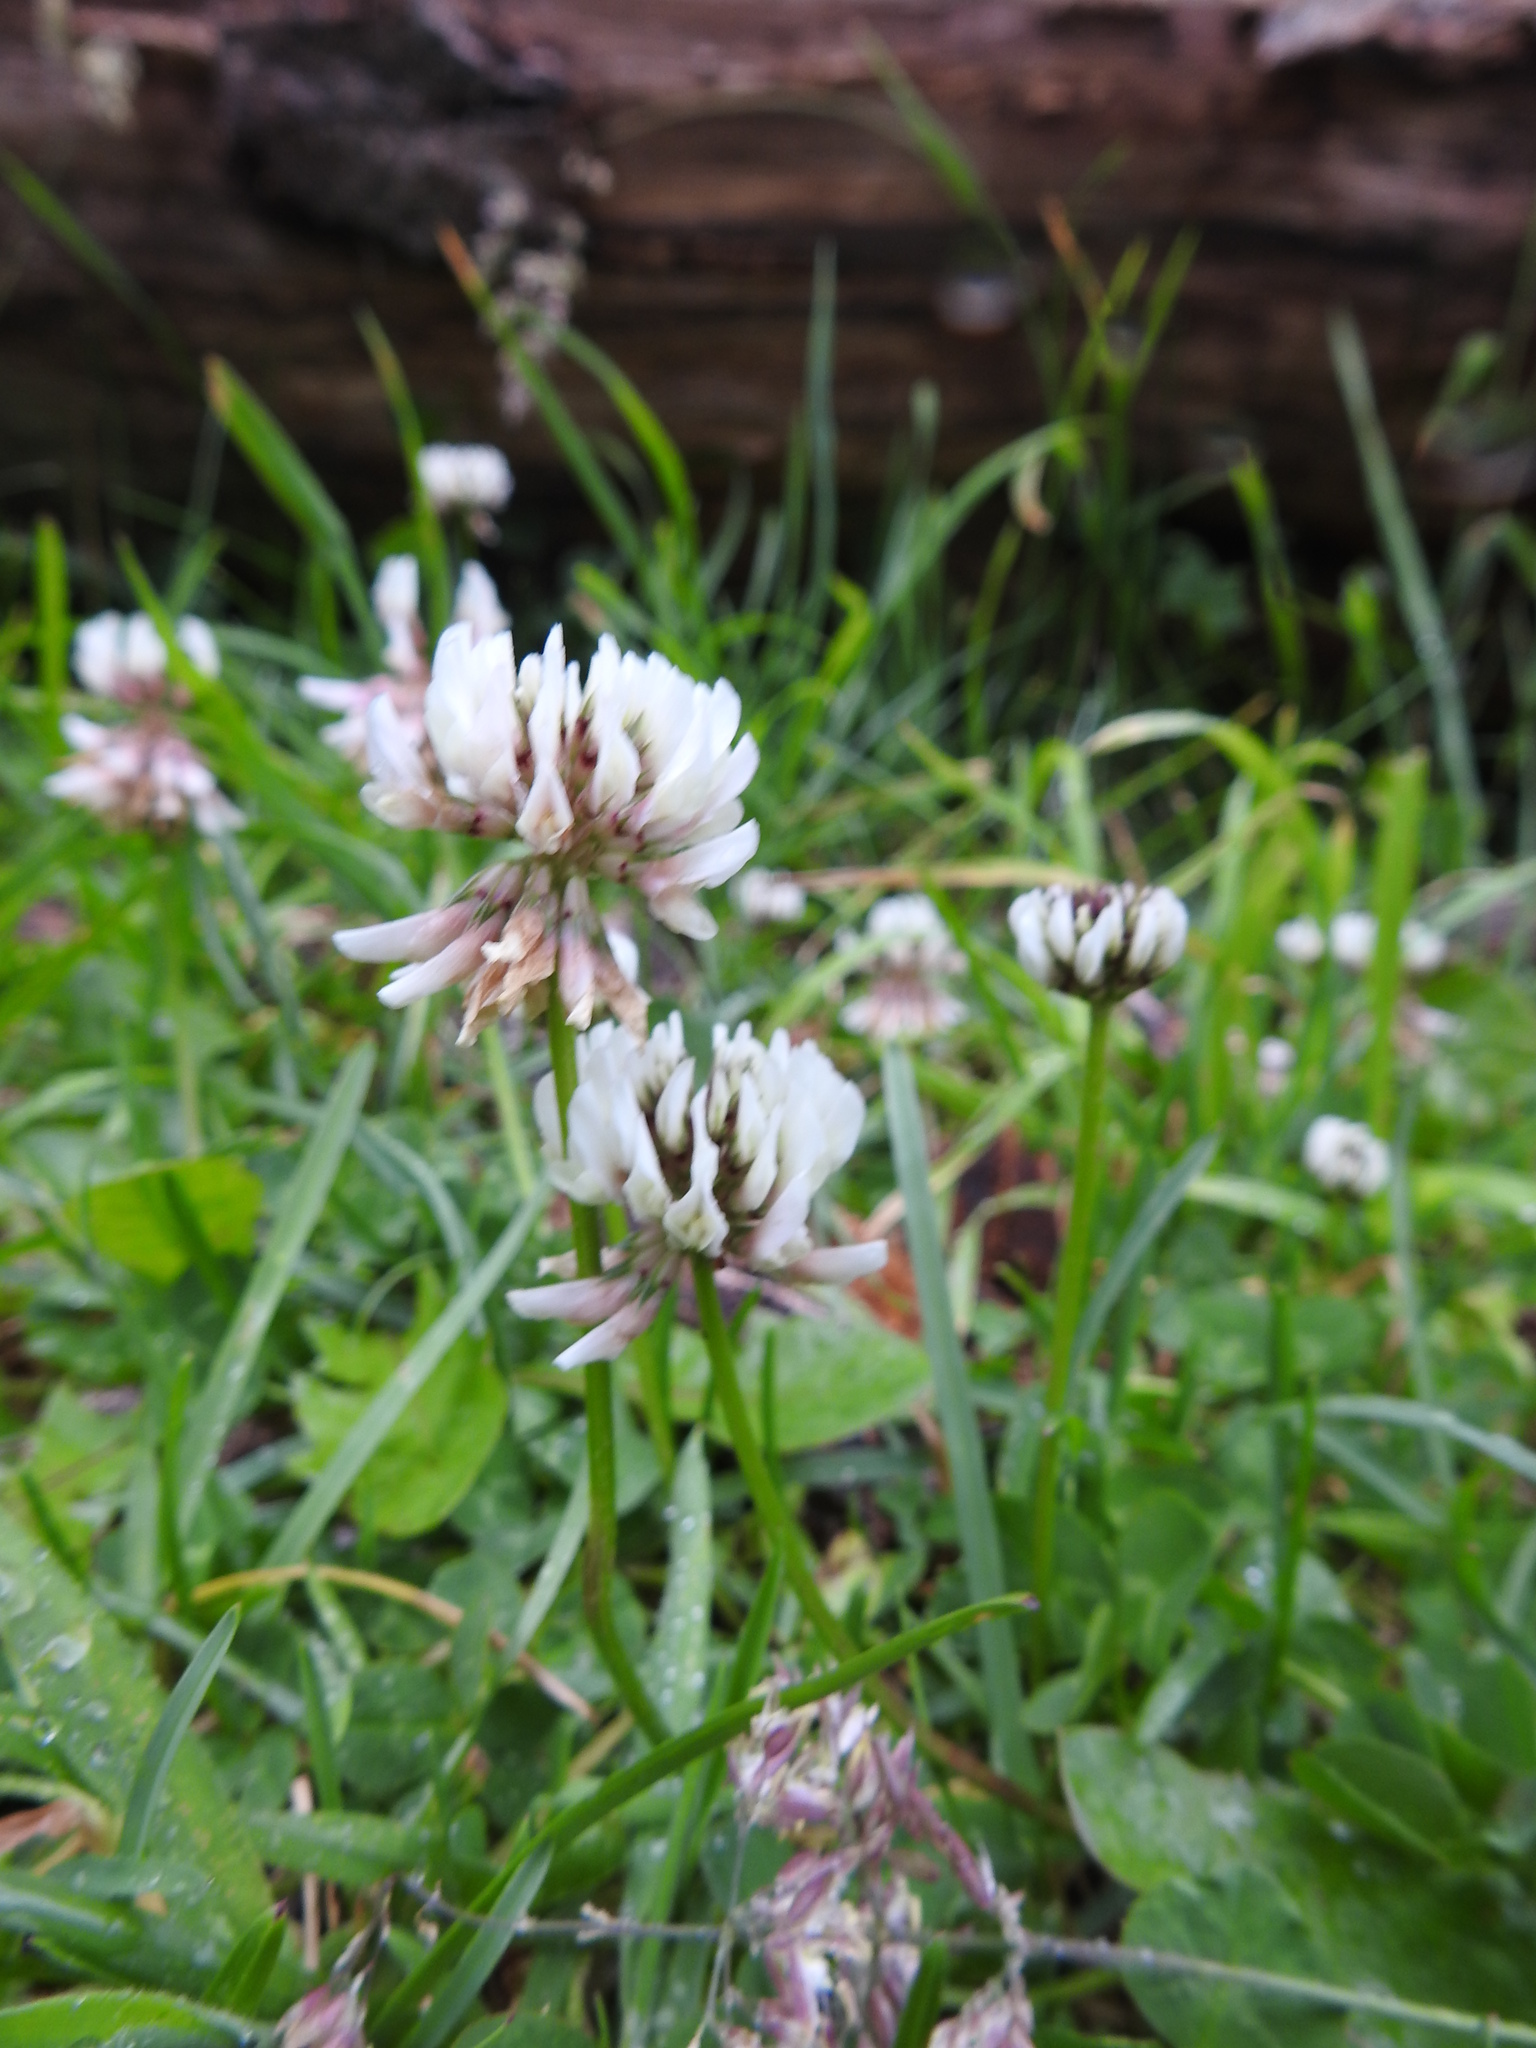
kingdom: Plantae
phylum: Tracheophyta
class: Magnoliopsida
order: Fabales
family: Fabaceae
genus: Trifolium
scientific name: Trifolium repens
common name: White clover
